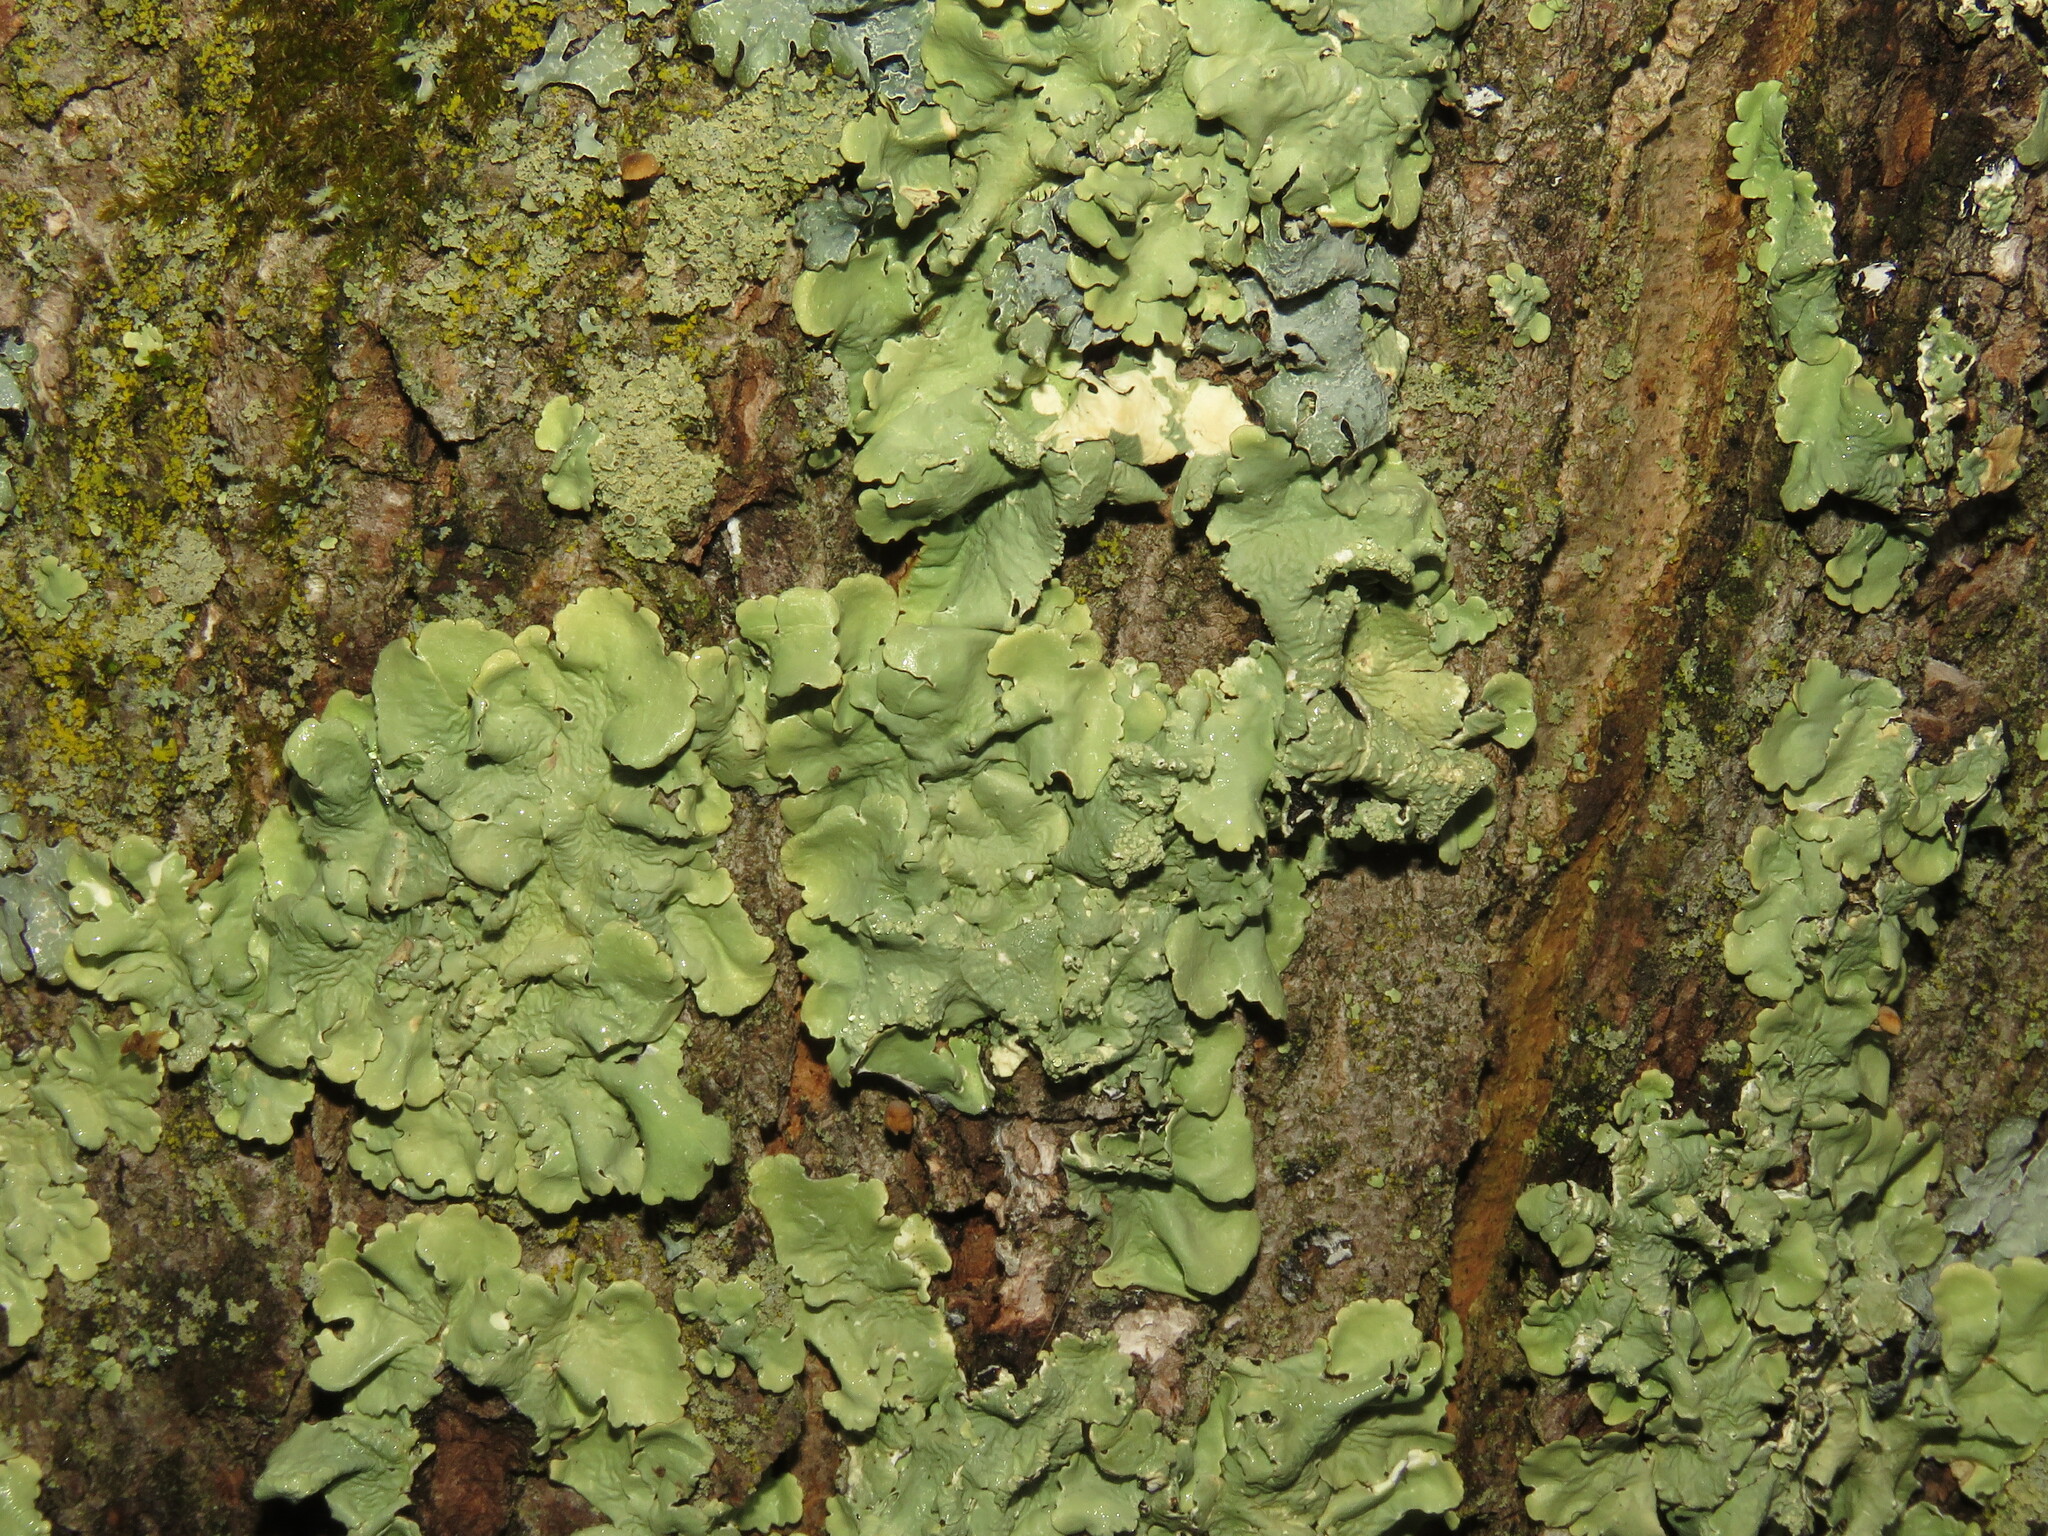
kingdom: Fungi
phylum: Ascomycota
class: Lecanoromycetes
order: Lecanorales
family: Parmeliaceae
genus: Flavoparmelia
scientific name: Flavoparmelia caperata
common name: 40-mile per hour lichen
